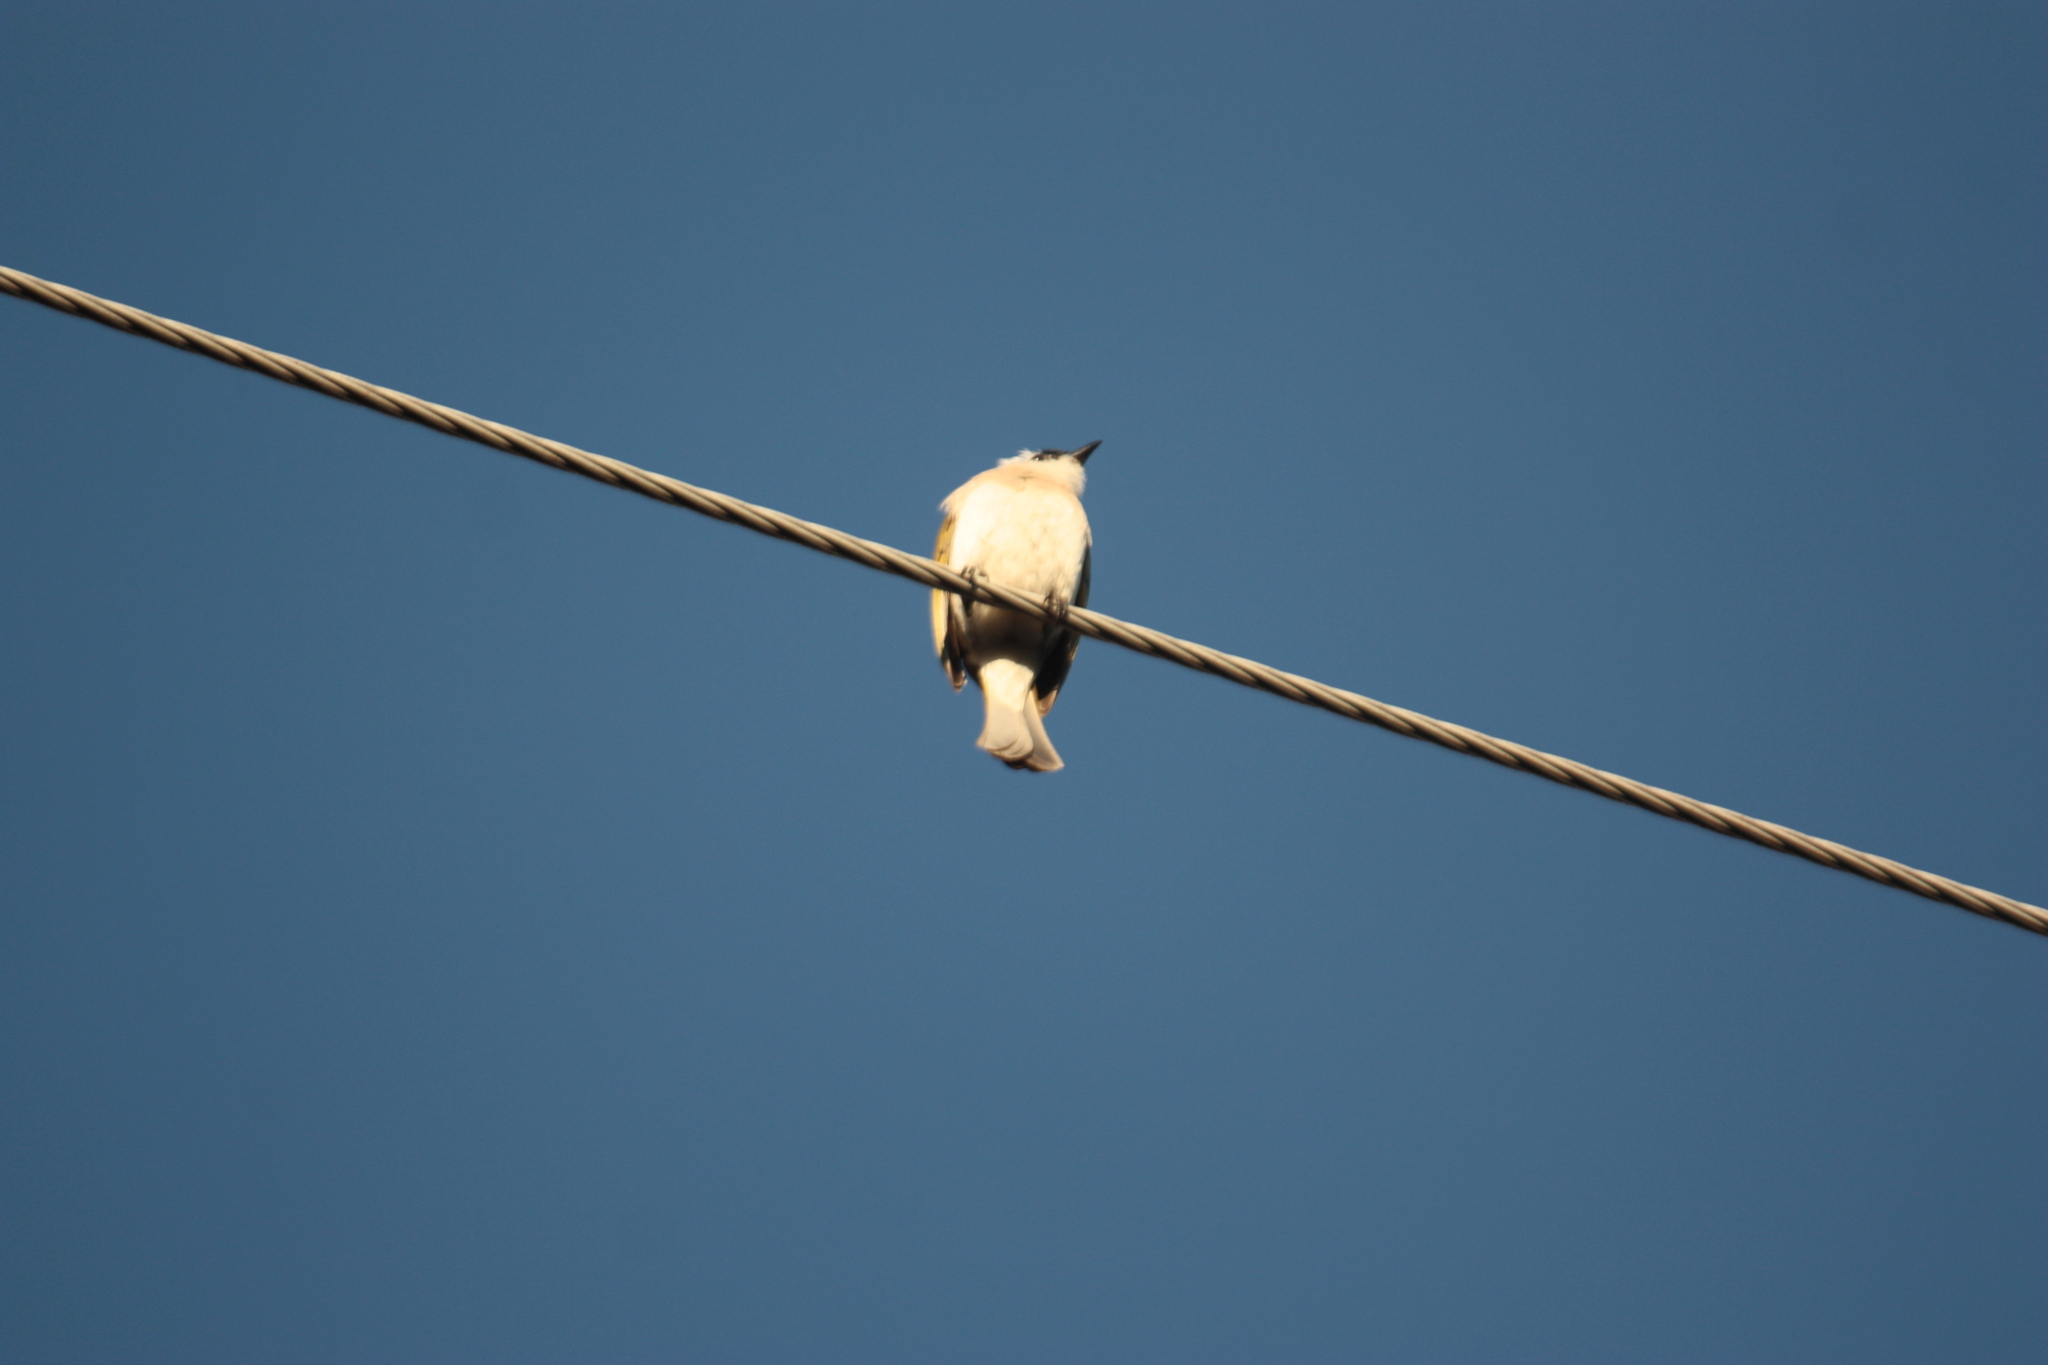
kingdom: Animalia
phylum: Chordata
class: Aves
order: Passeriformes
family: Pycnonotidae
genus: Pycnonotus
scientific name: Pycnonotus sinensis
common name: Light-vented bulbul
